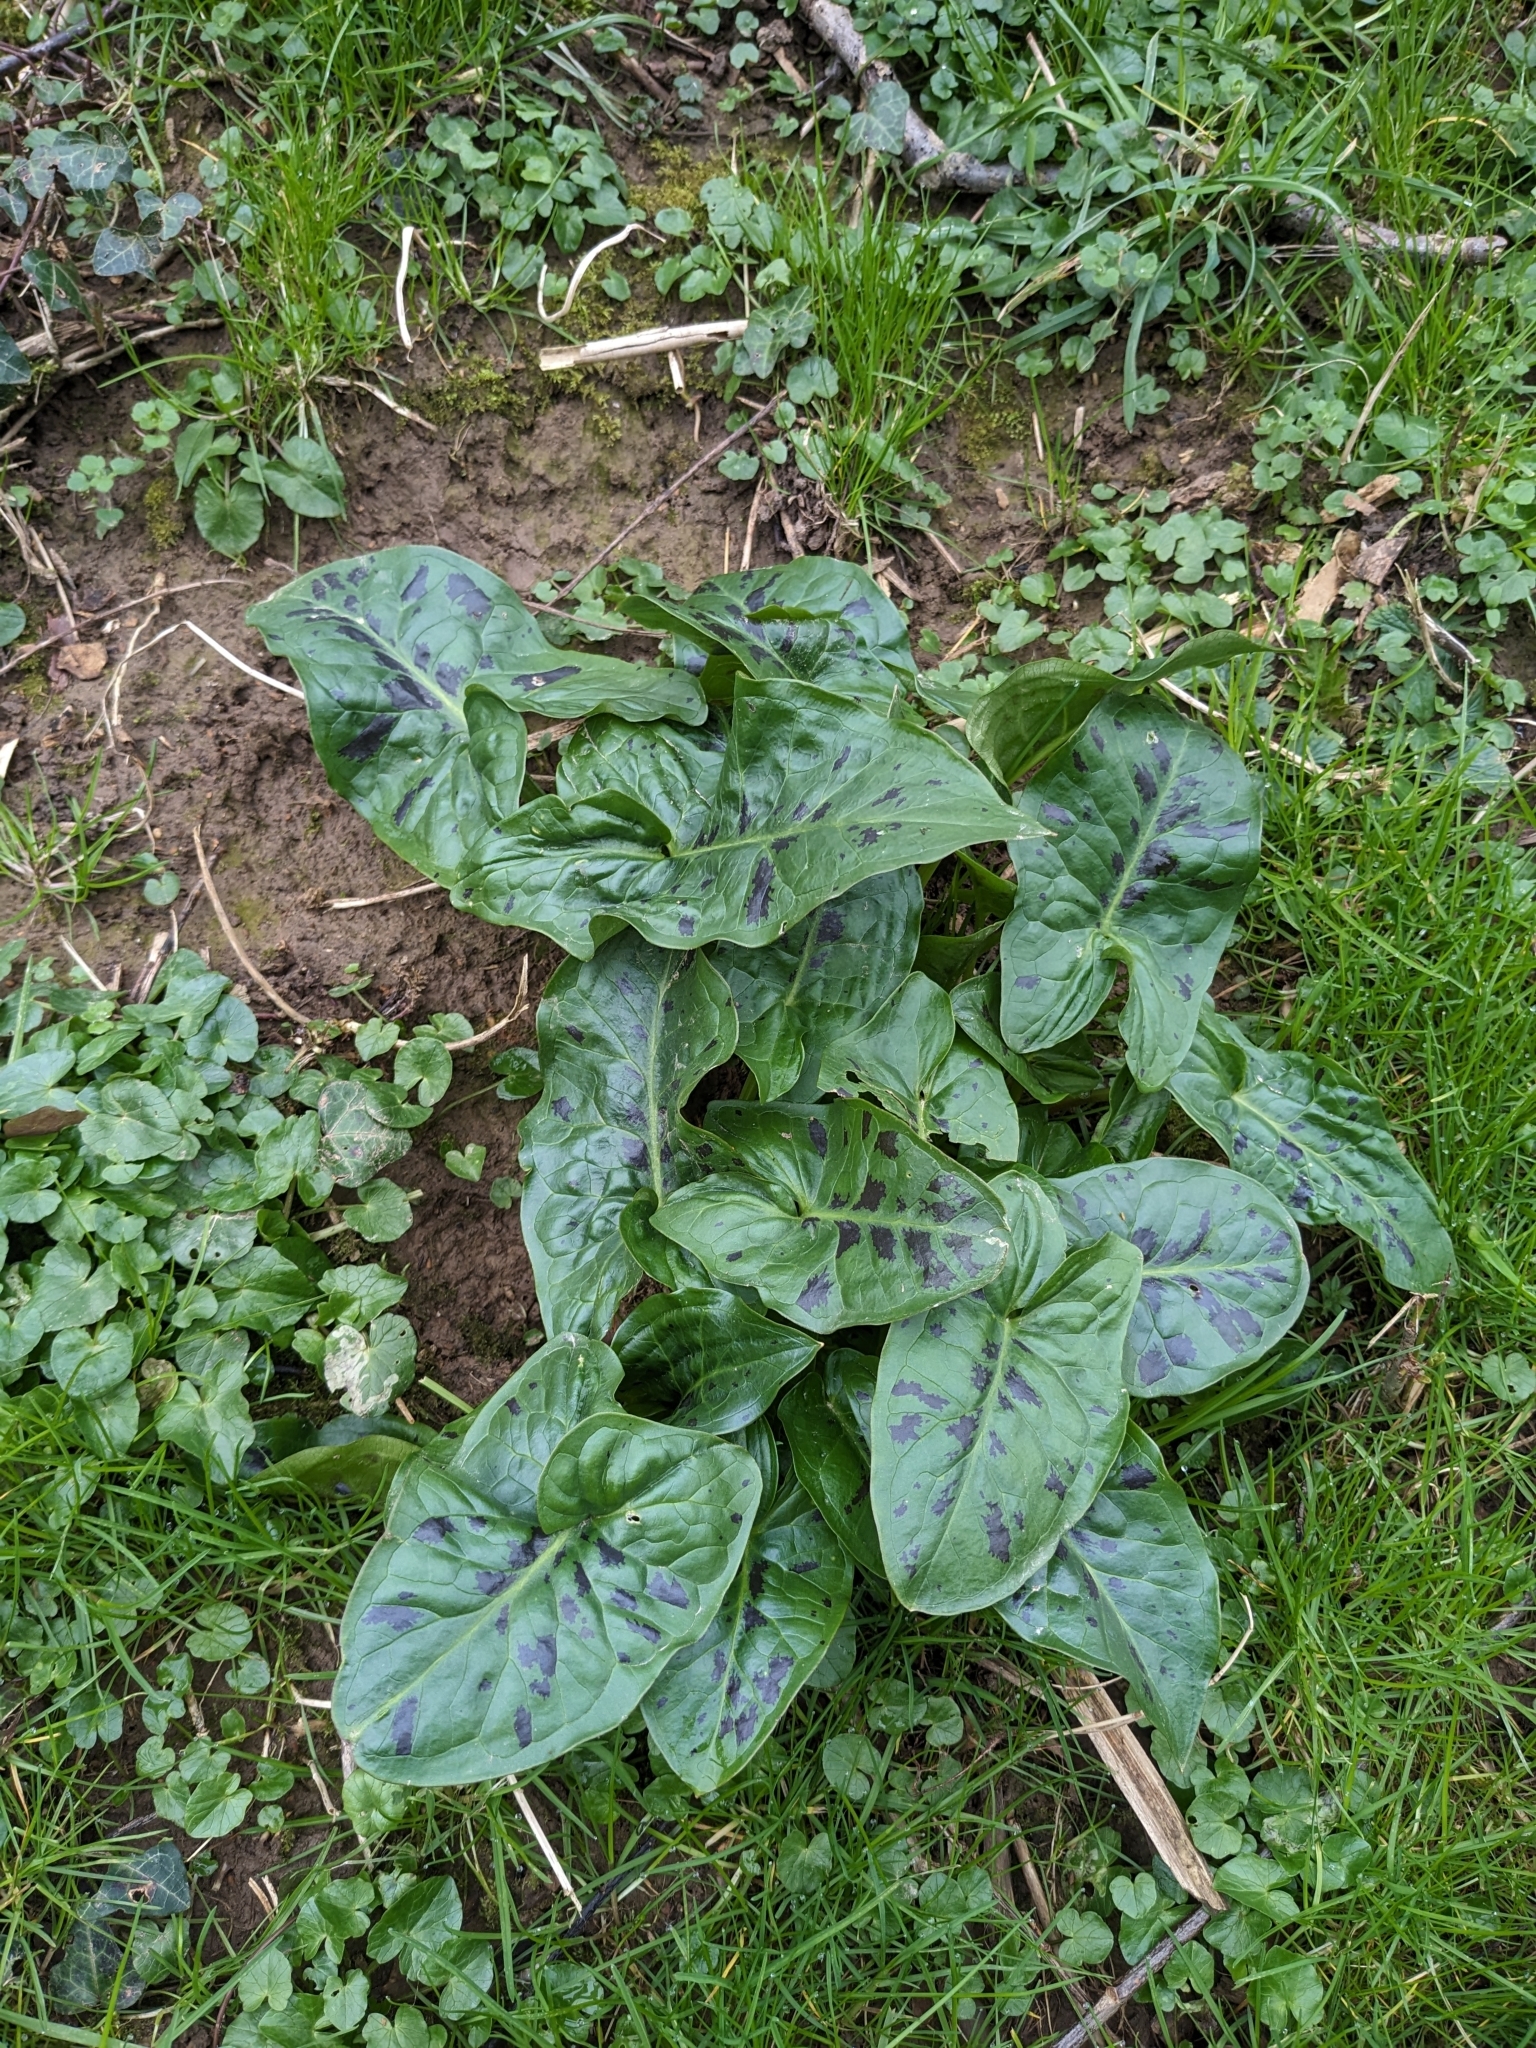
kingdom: Plantae
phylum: Tracheophyta
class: Liliopsida
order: Alismatales
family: Araceae
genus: Arum
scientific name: Arum maculatum
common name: Lords-and-ladies
